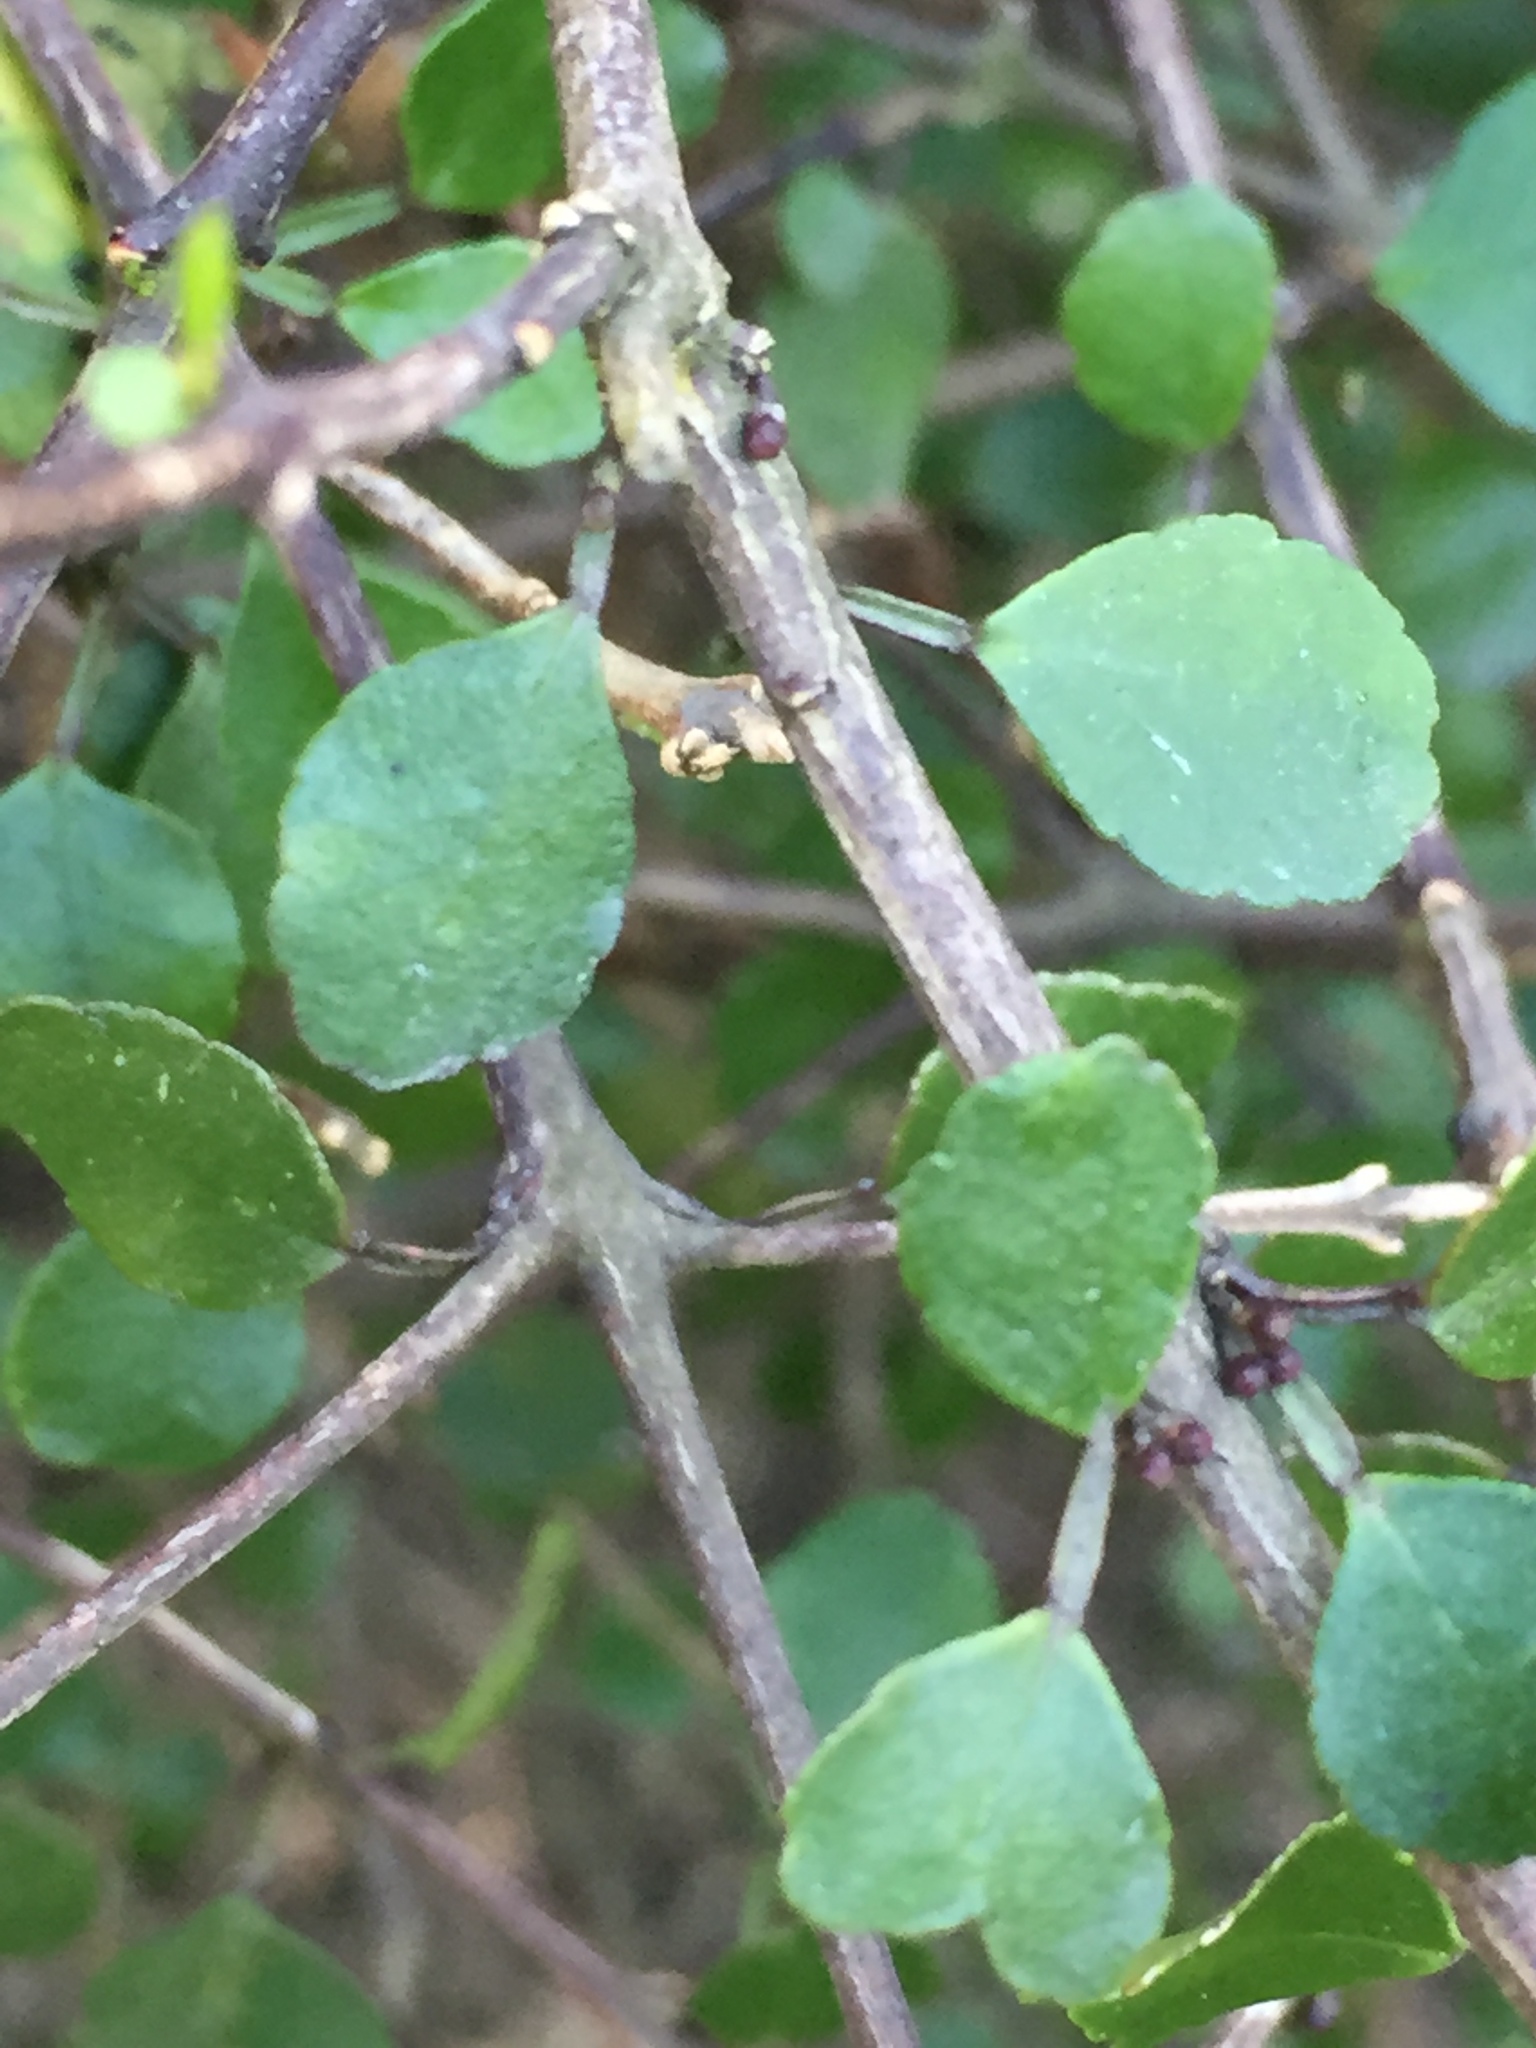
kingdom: Plantae
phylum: Tracheophyta
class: Magnoliopsida
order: Sapindales
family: Rutaceae
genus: Melicope
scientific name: Melicope simplex
